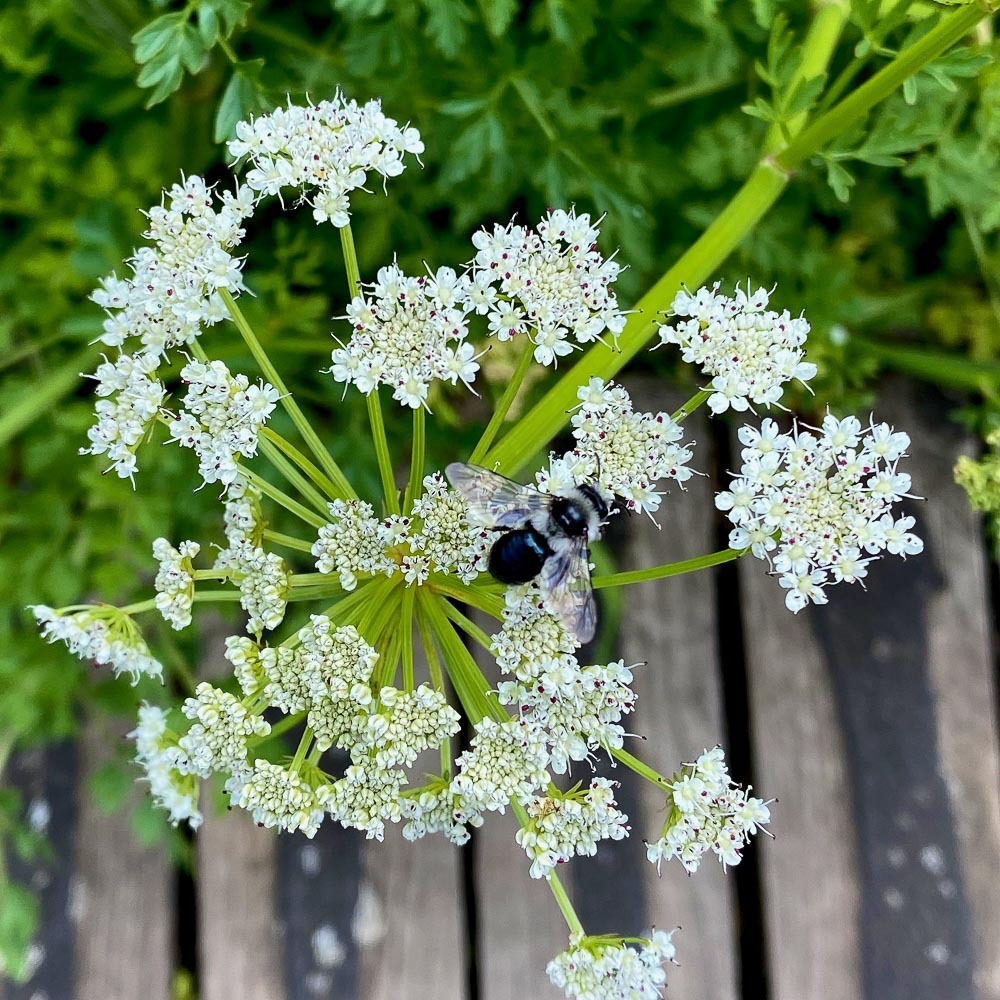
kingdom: Animalia
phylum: Arthropoda
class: Insecta
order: Hymenoptera
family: Andrenidae
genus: Andrena
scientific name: Andrena cineraria
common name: Ashy mining bee
